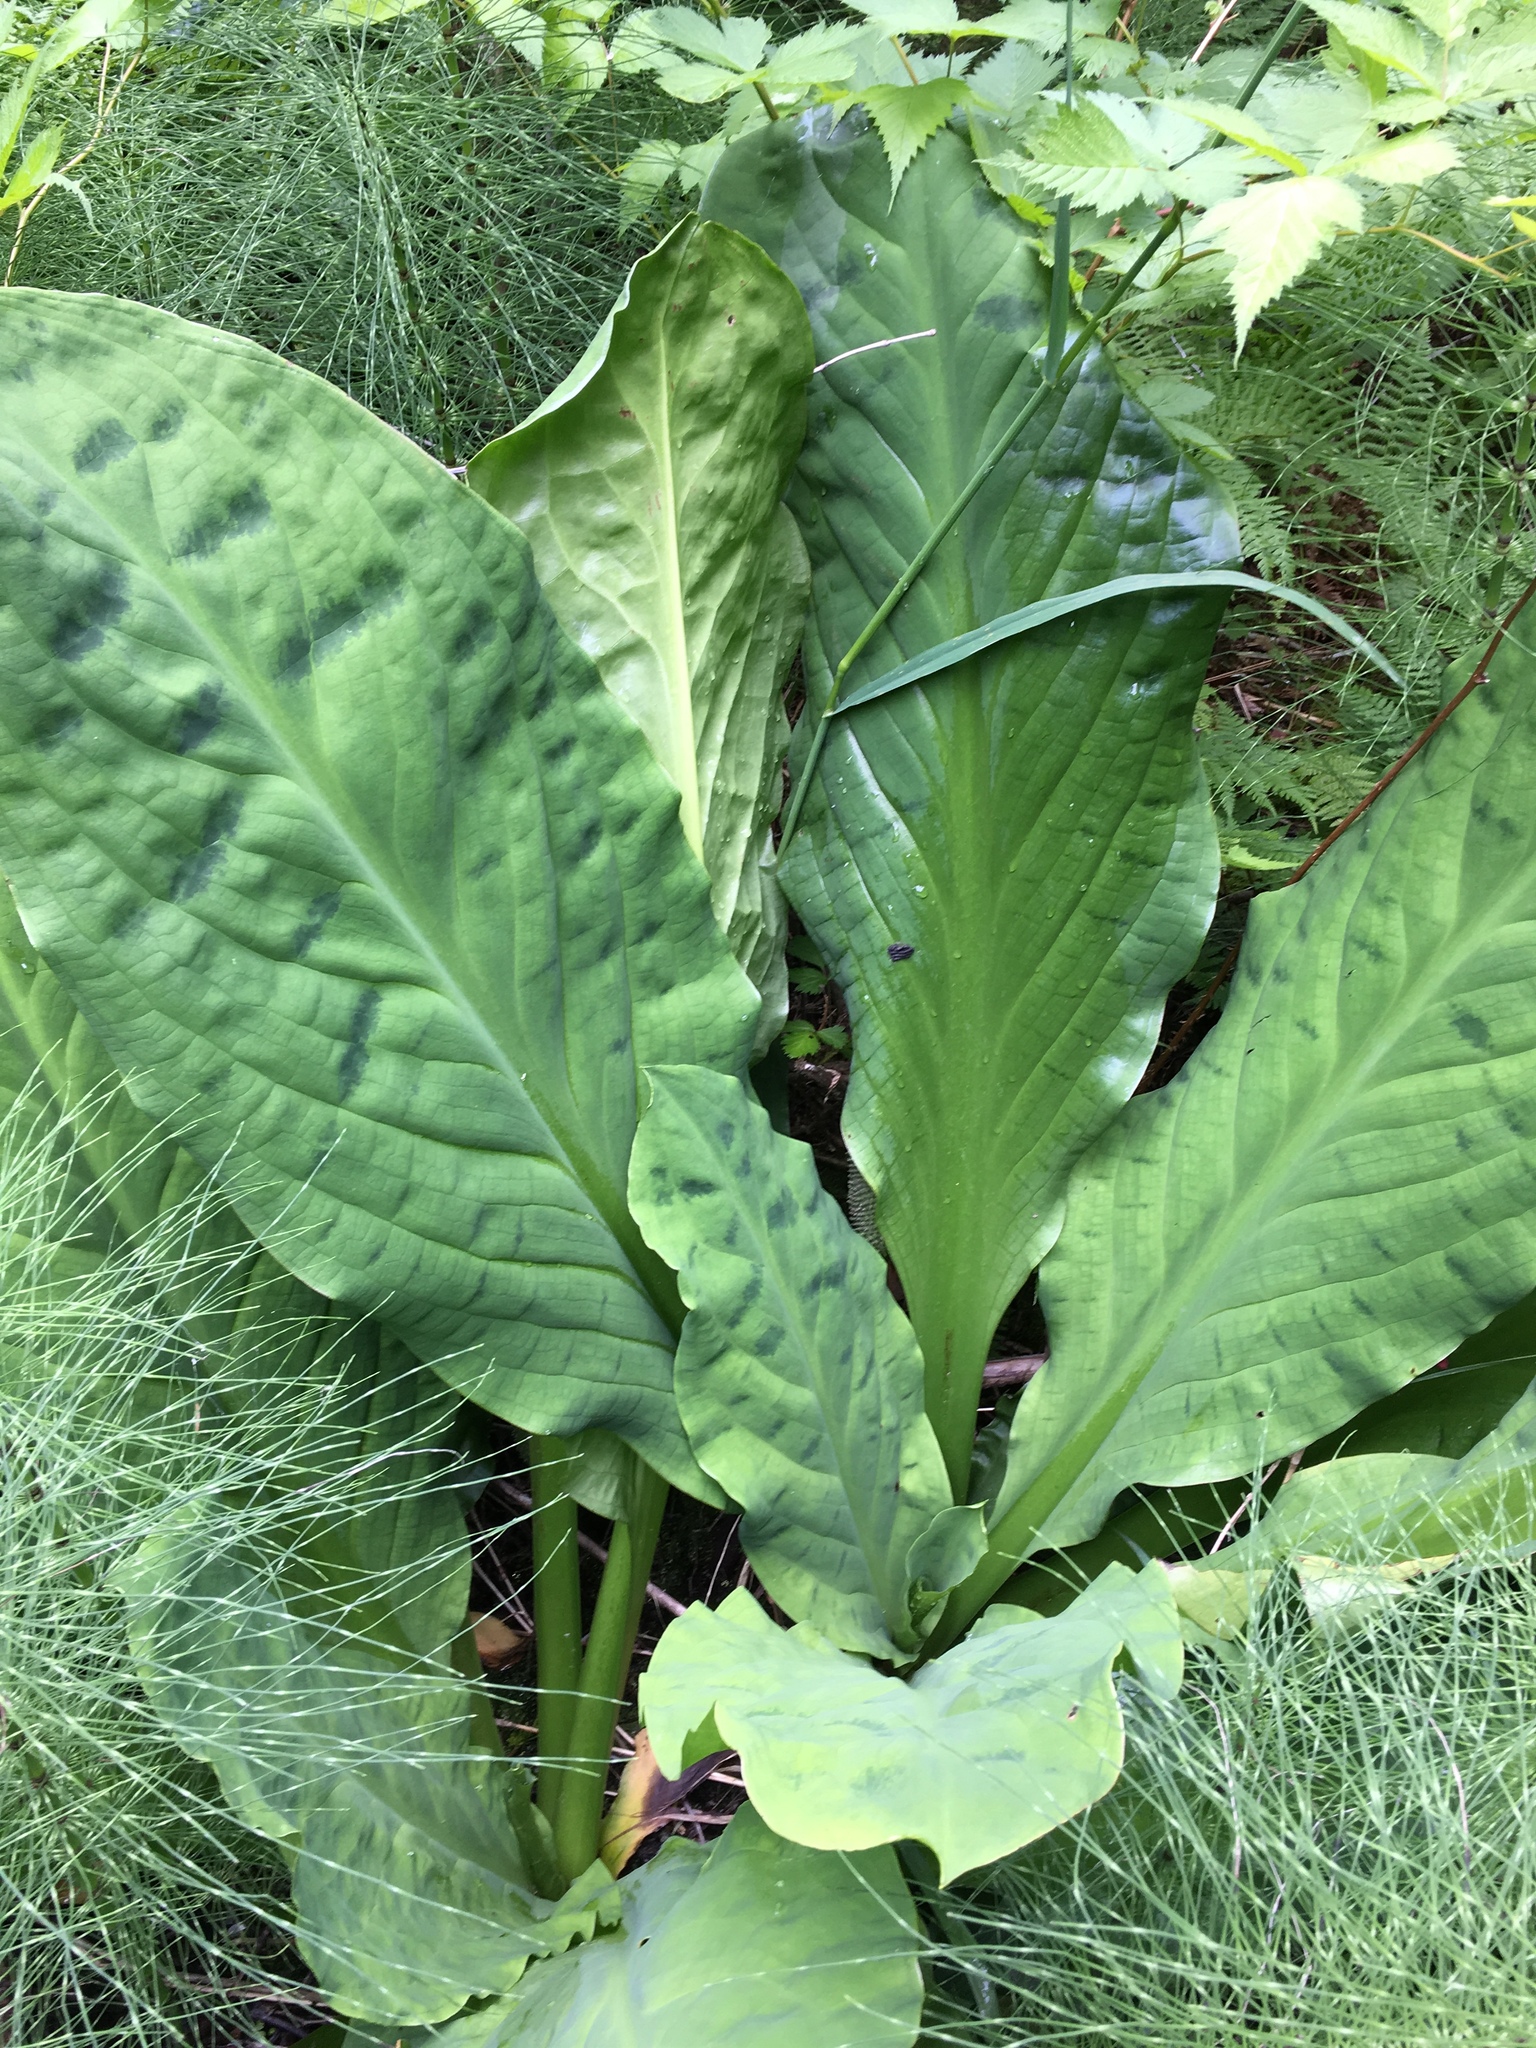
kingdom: Plantae
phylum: Tracheophyta
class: Liliopsida
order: Alismatales
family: Araceae
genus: Lysichiton
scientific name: Lysichiton americanus
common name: American skunk cabbage
